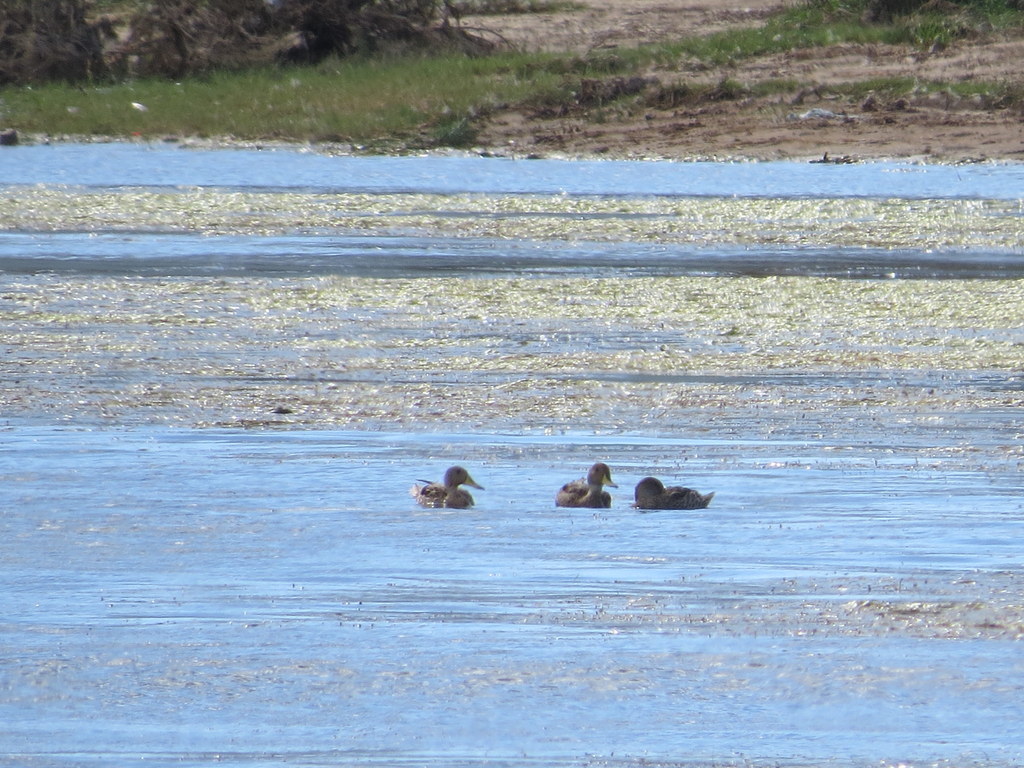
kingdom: Animalia
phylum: Chordata
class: Aves
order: Anseriformes
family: Anatidae
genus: Anas
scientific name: Anas georgica
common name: Yellow-billed pintail
